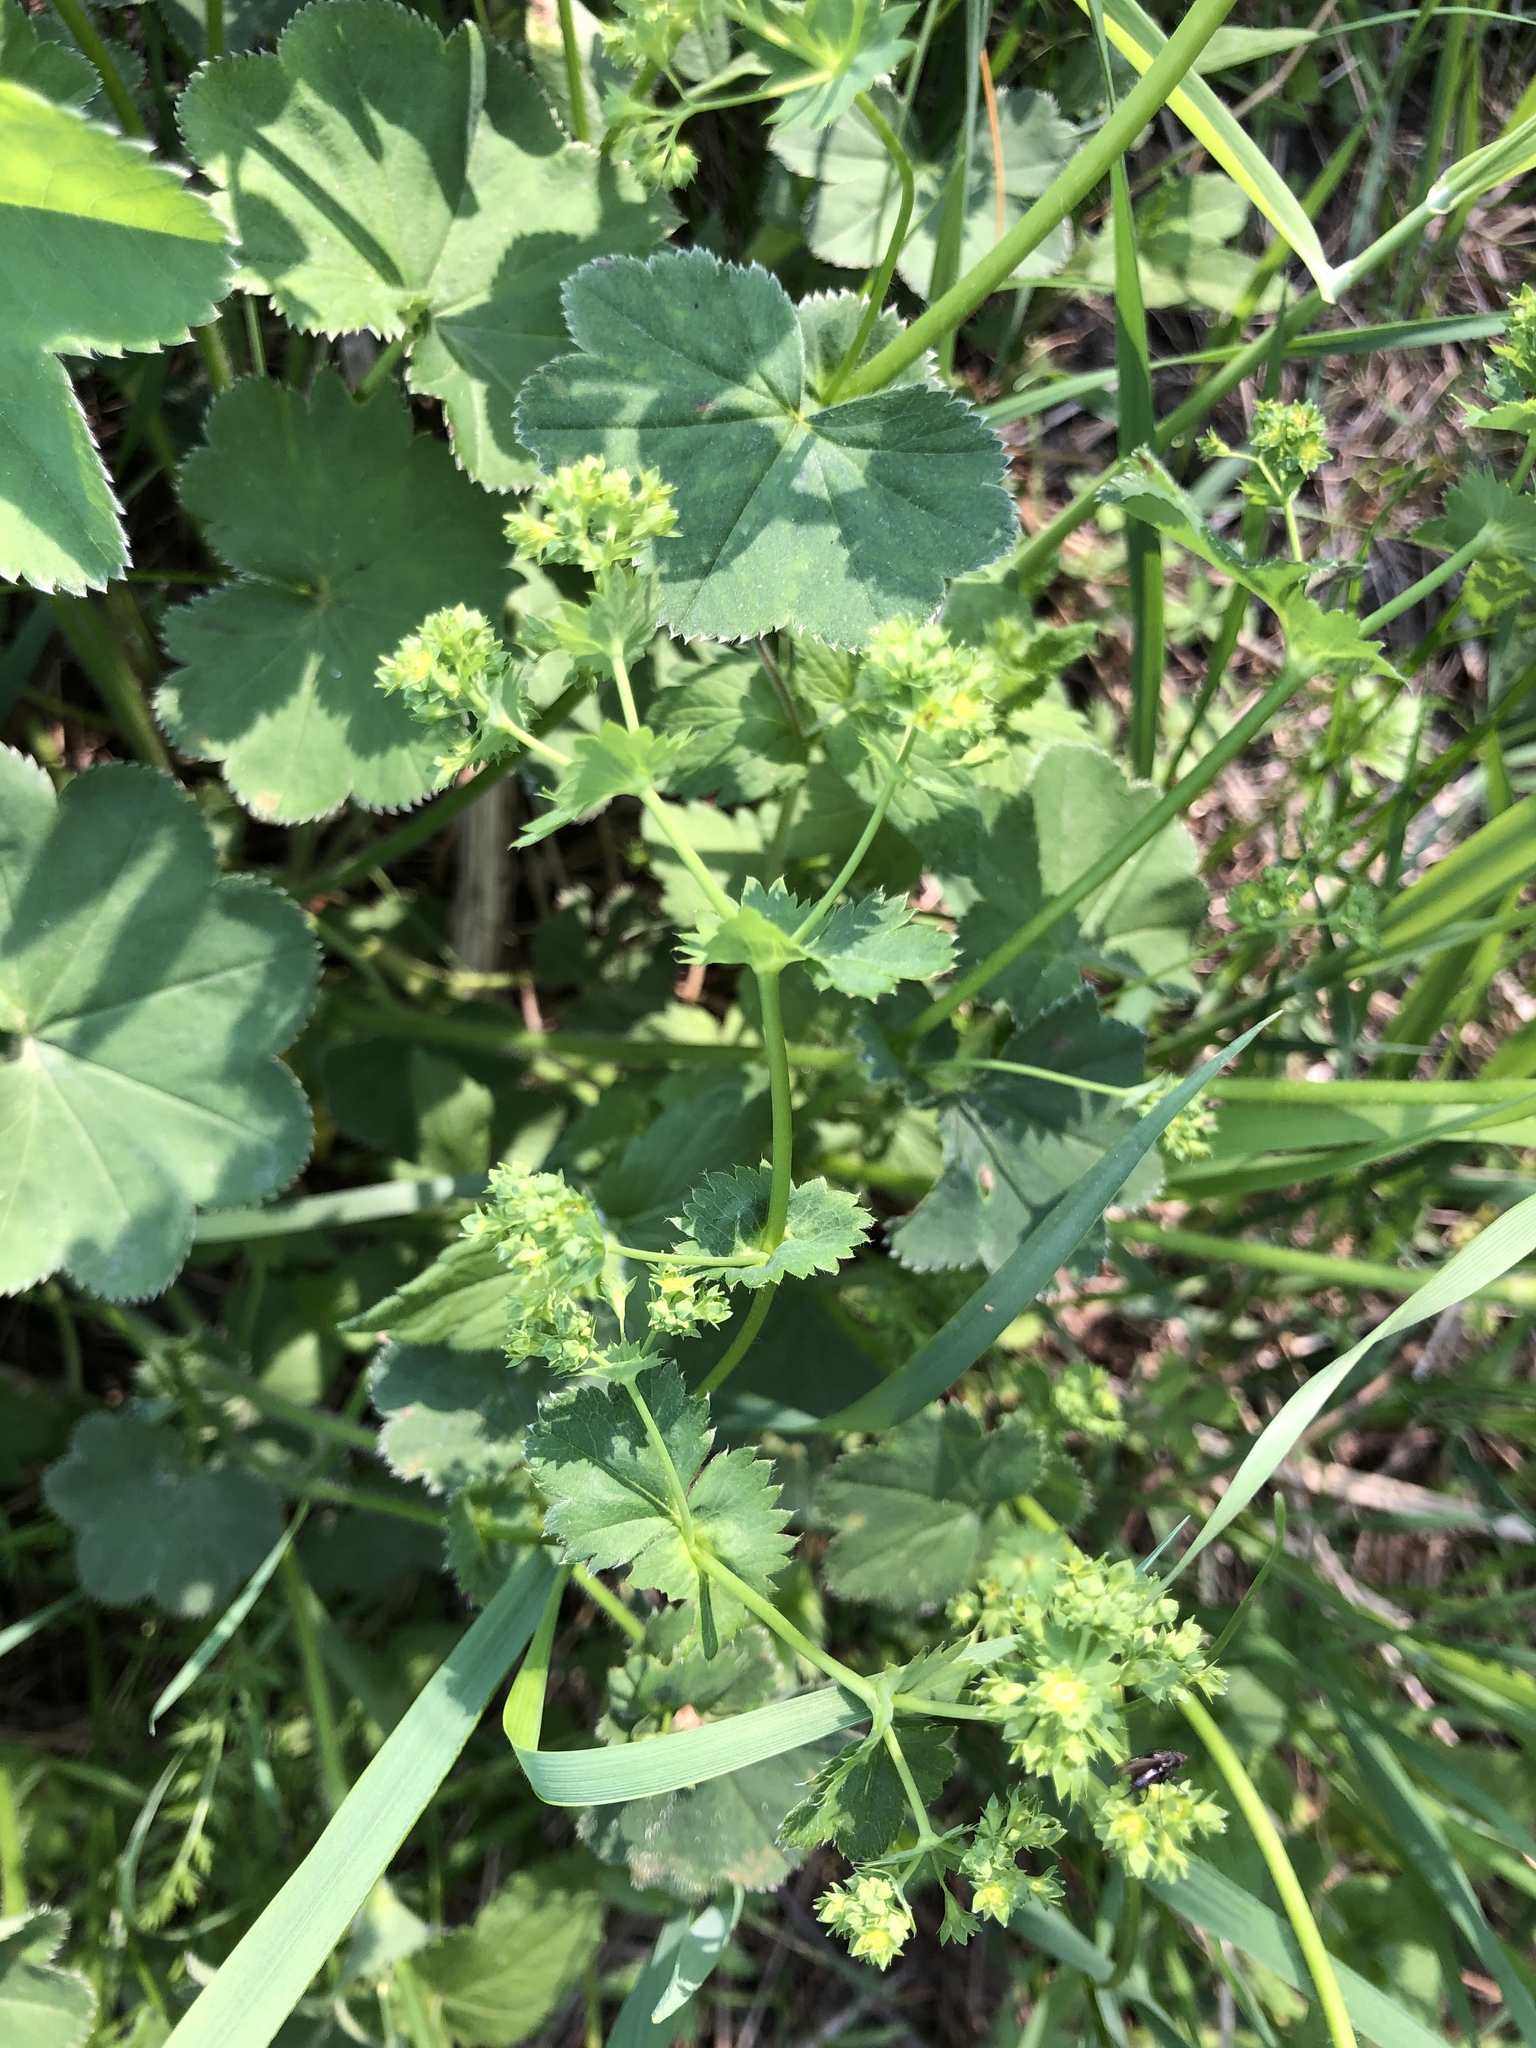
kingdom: Plantae
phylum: Tracheophyta
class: Magnoliopsida
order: Rosales
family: Rosaceae
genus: Alchemilla
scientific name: Alchemilla
